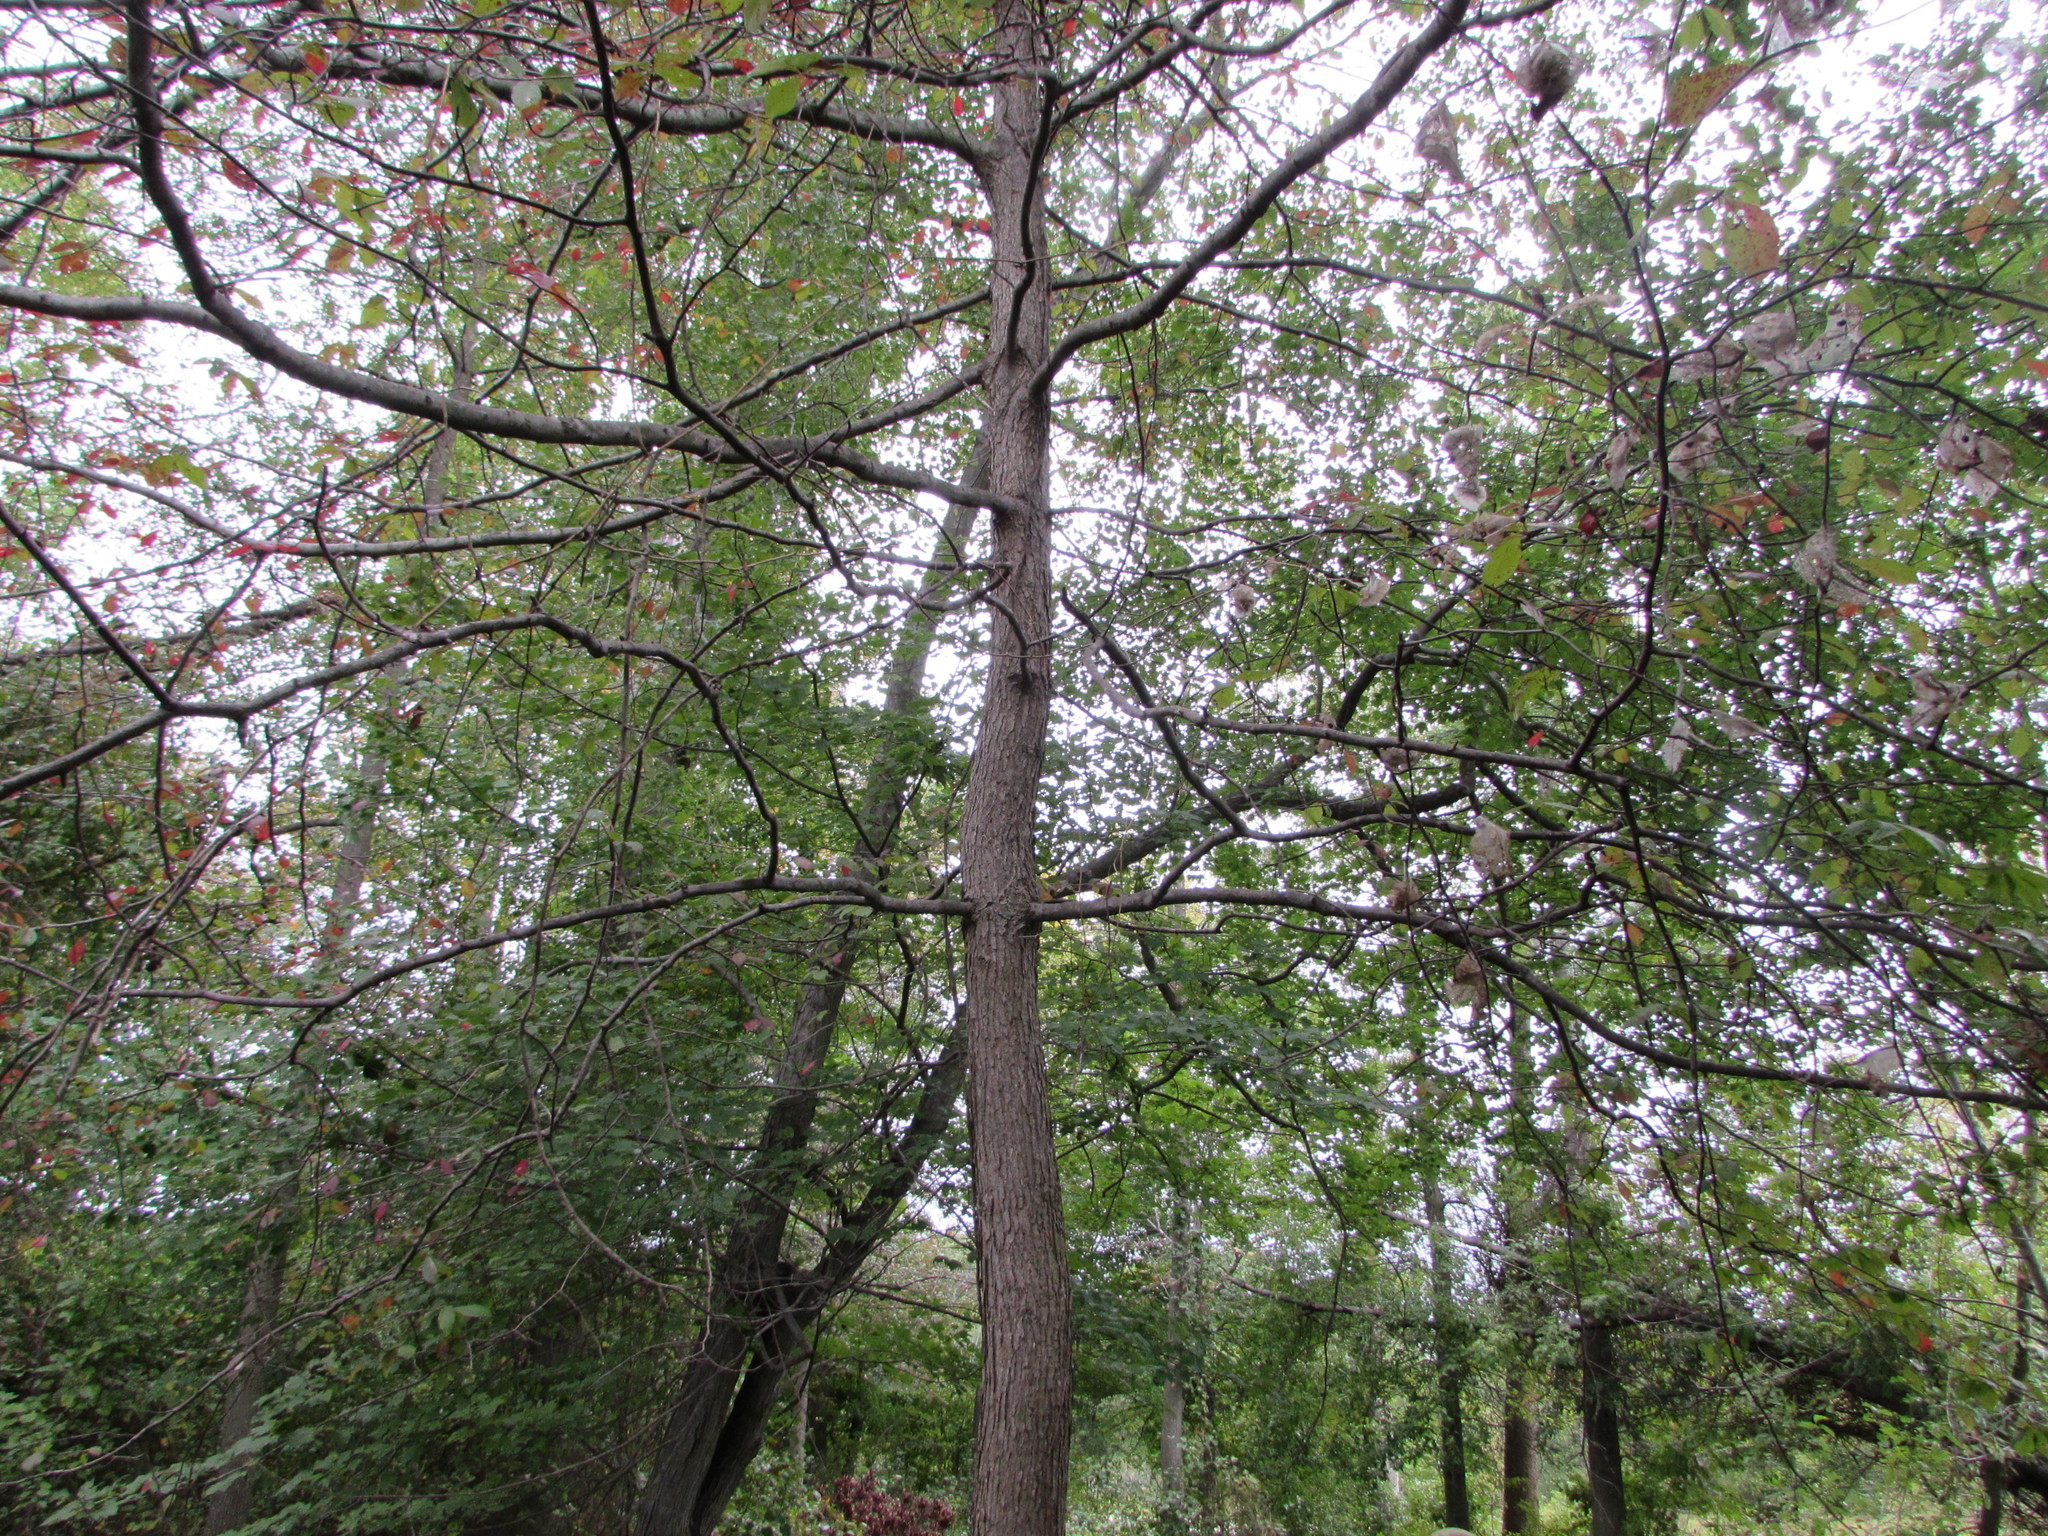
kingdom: Plantae
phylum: Tracheophyta
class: Magnoliopsida
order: Cornales
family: Nyssaceae
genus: Nyssa
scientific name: Nyssa sylvatica
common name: Black tupelo
